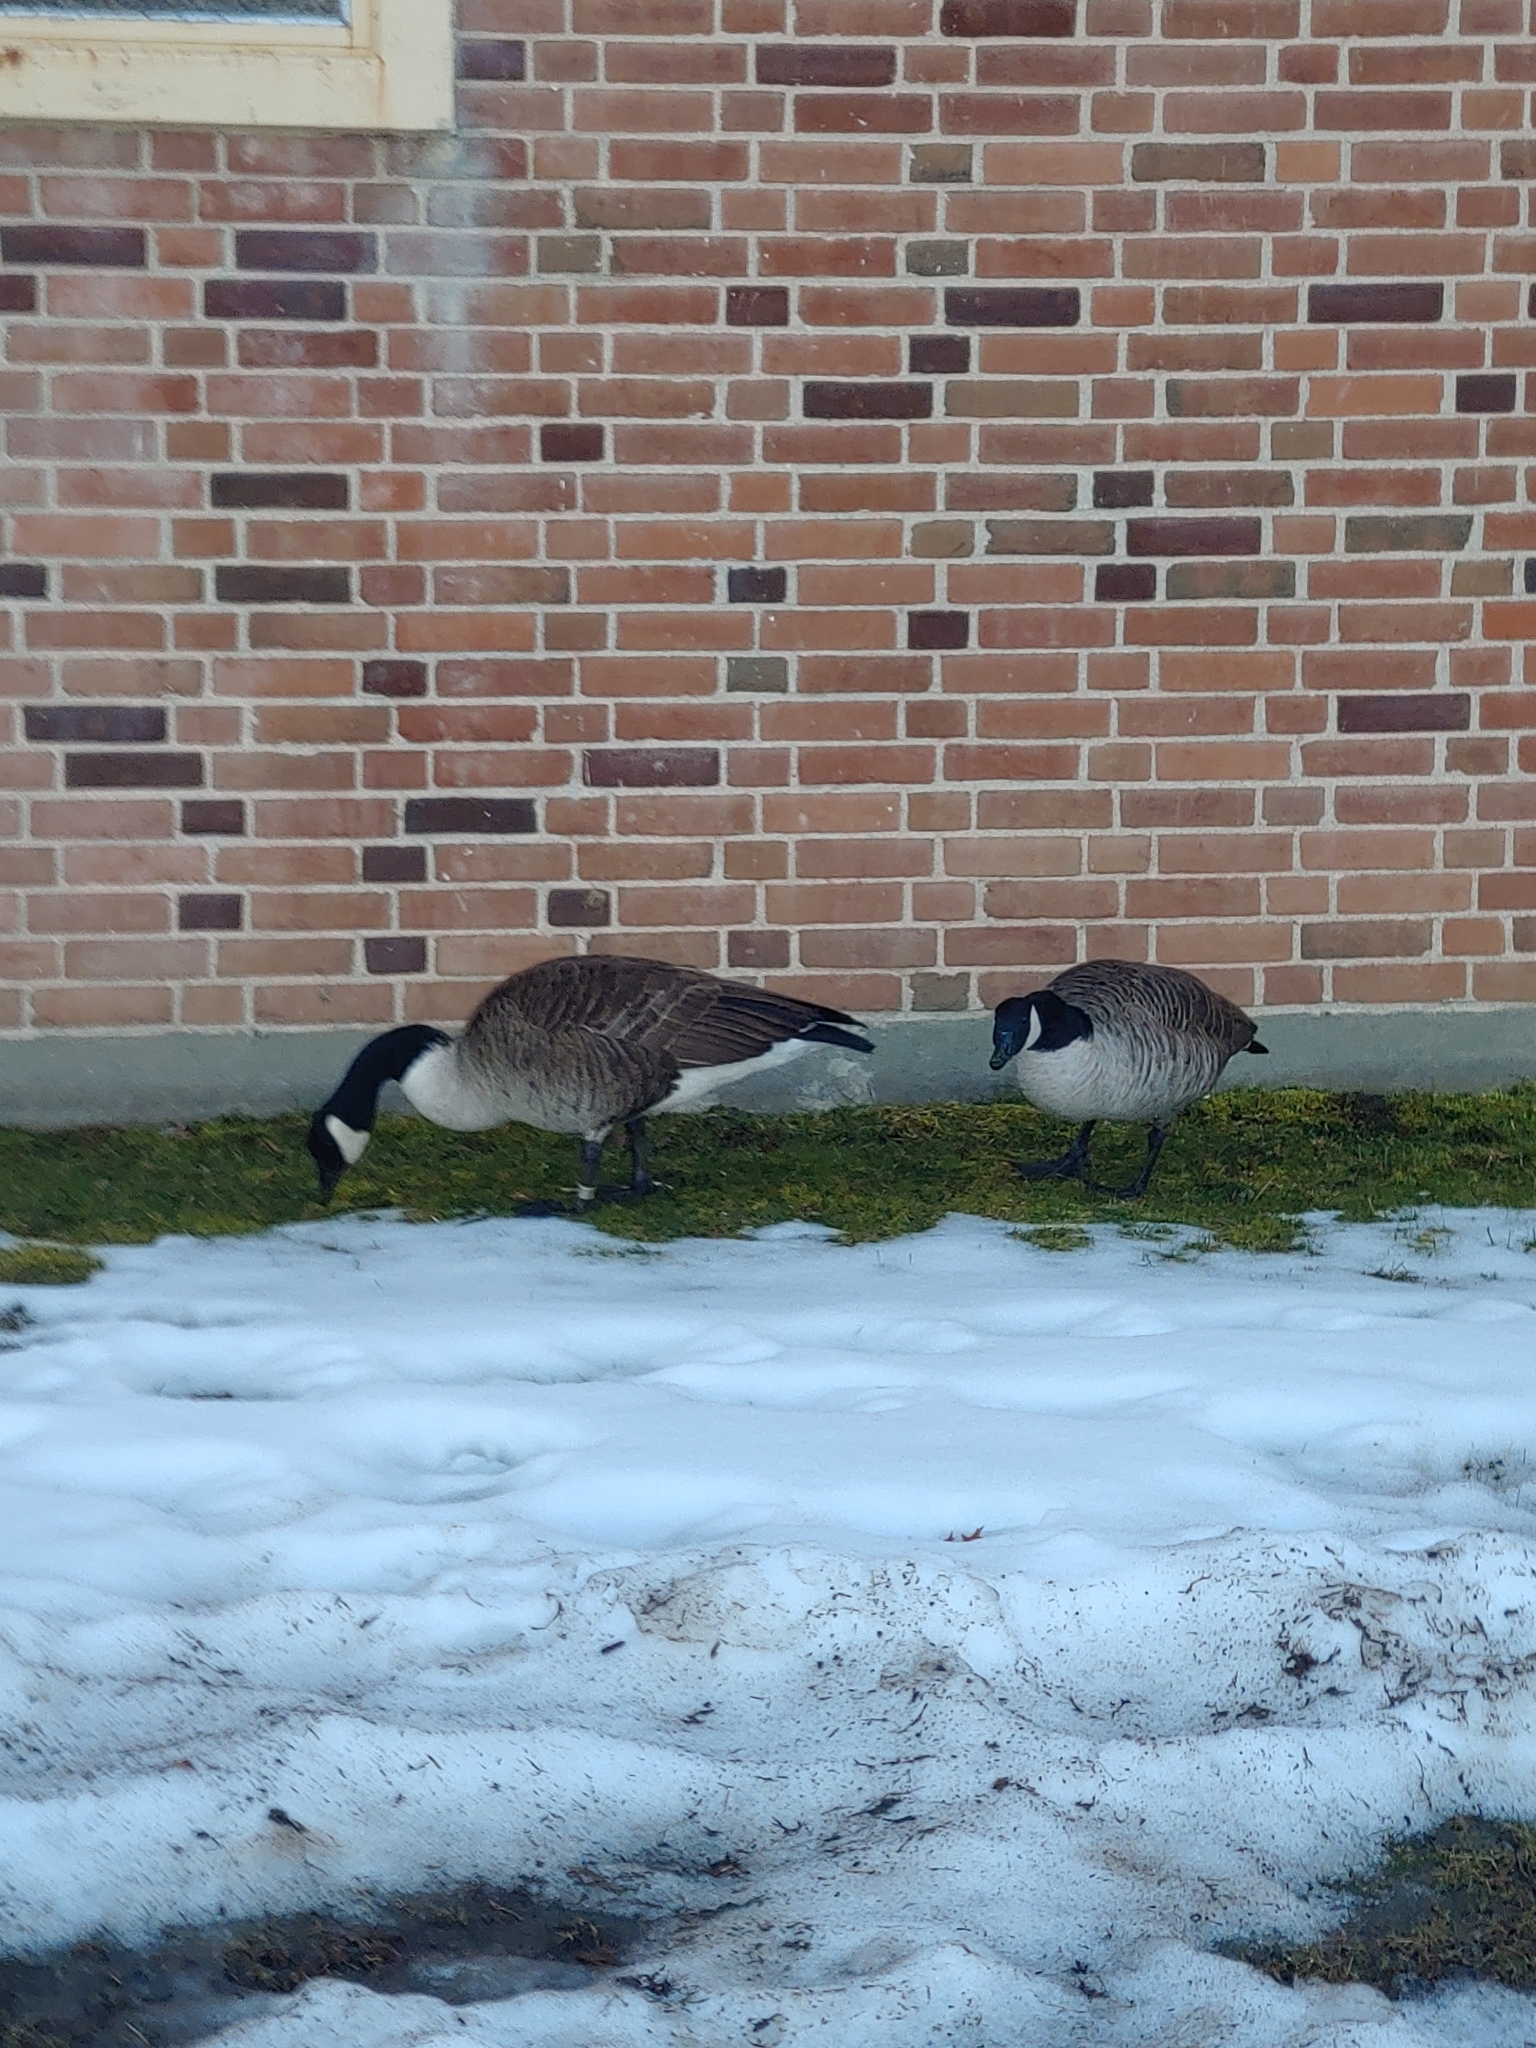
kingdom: Animalia
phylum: Chordata
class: Aves
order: Anseriformes
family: Anatidae
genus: Branta
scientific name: Branta canadensis
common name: Canada goose
